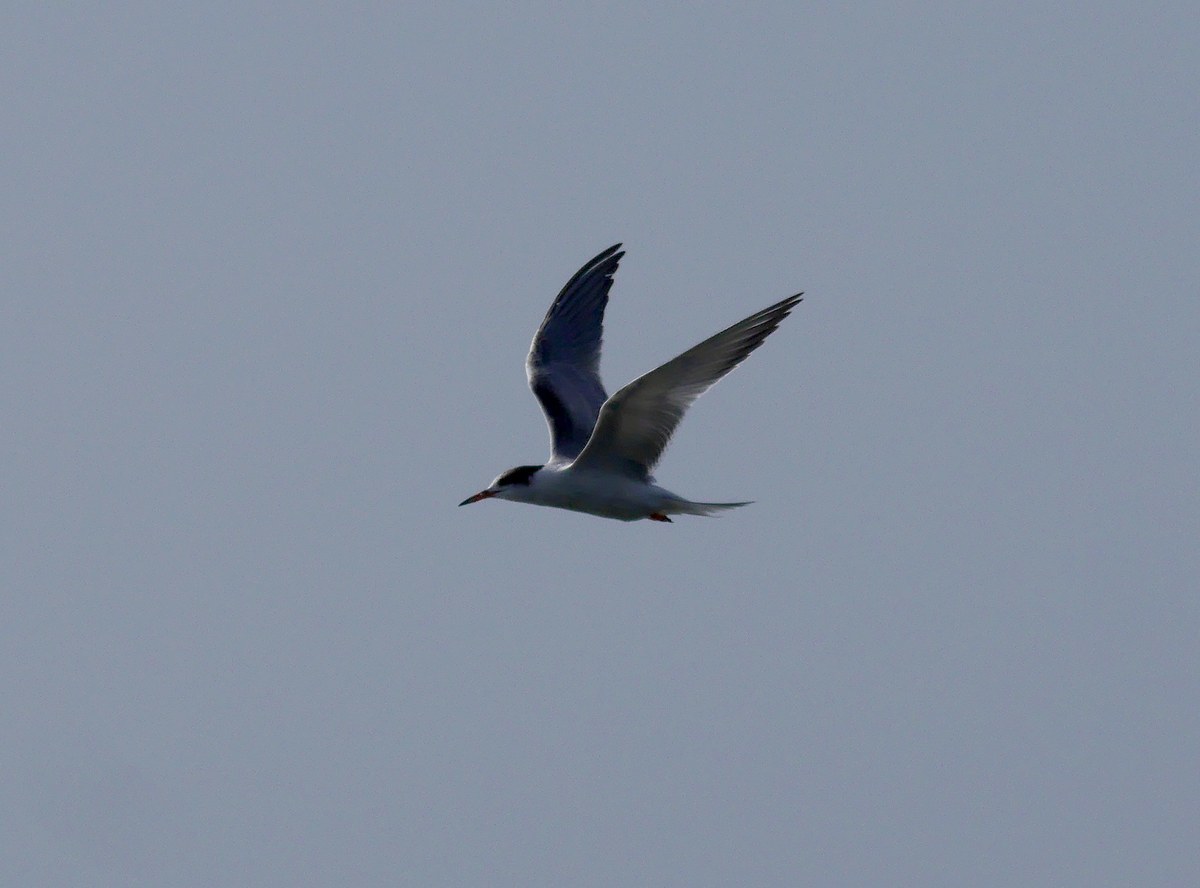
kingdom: Animalia
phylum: Chordata
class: Aves
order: Charadriiformes
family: Laridae
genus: Sterna
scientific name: Sterna hirundo
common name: Common tern
